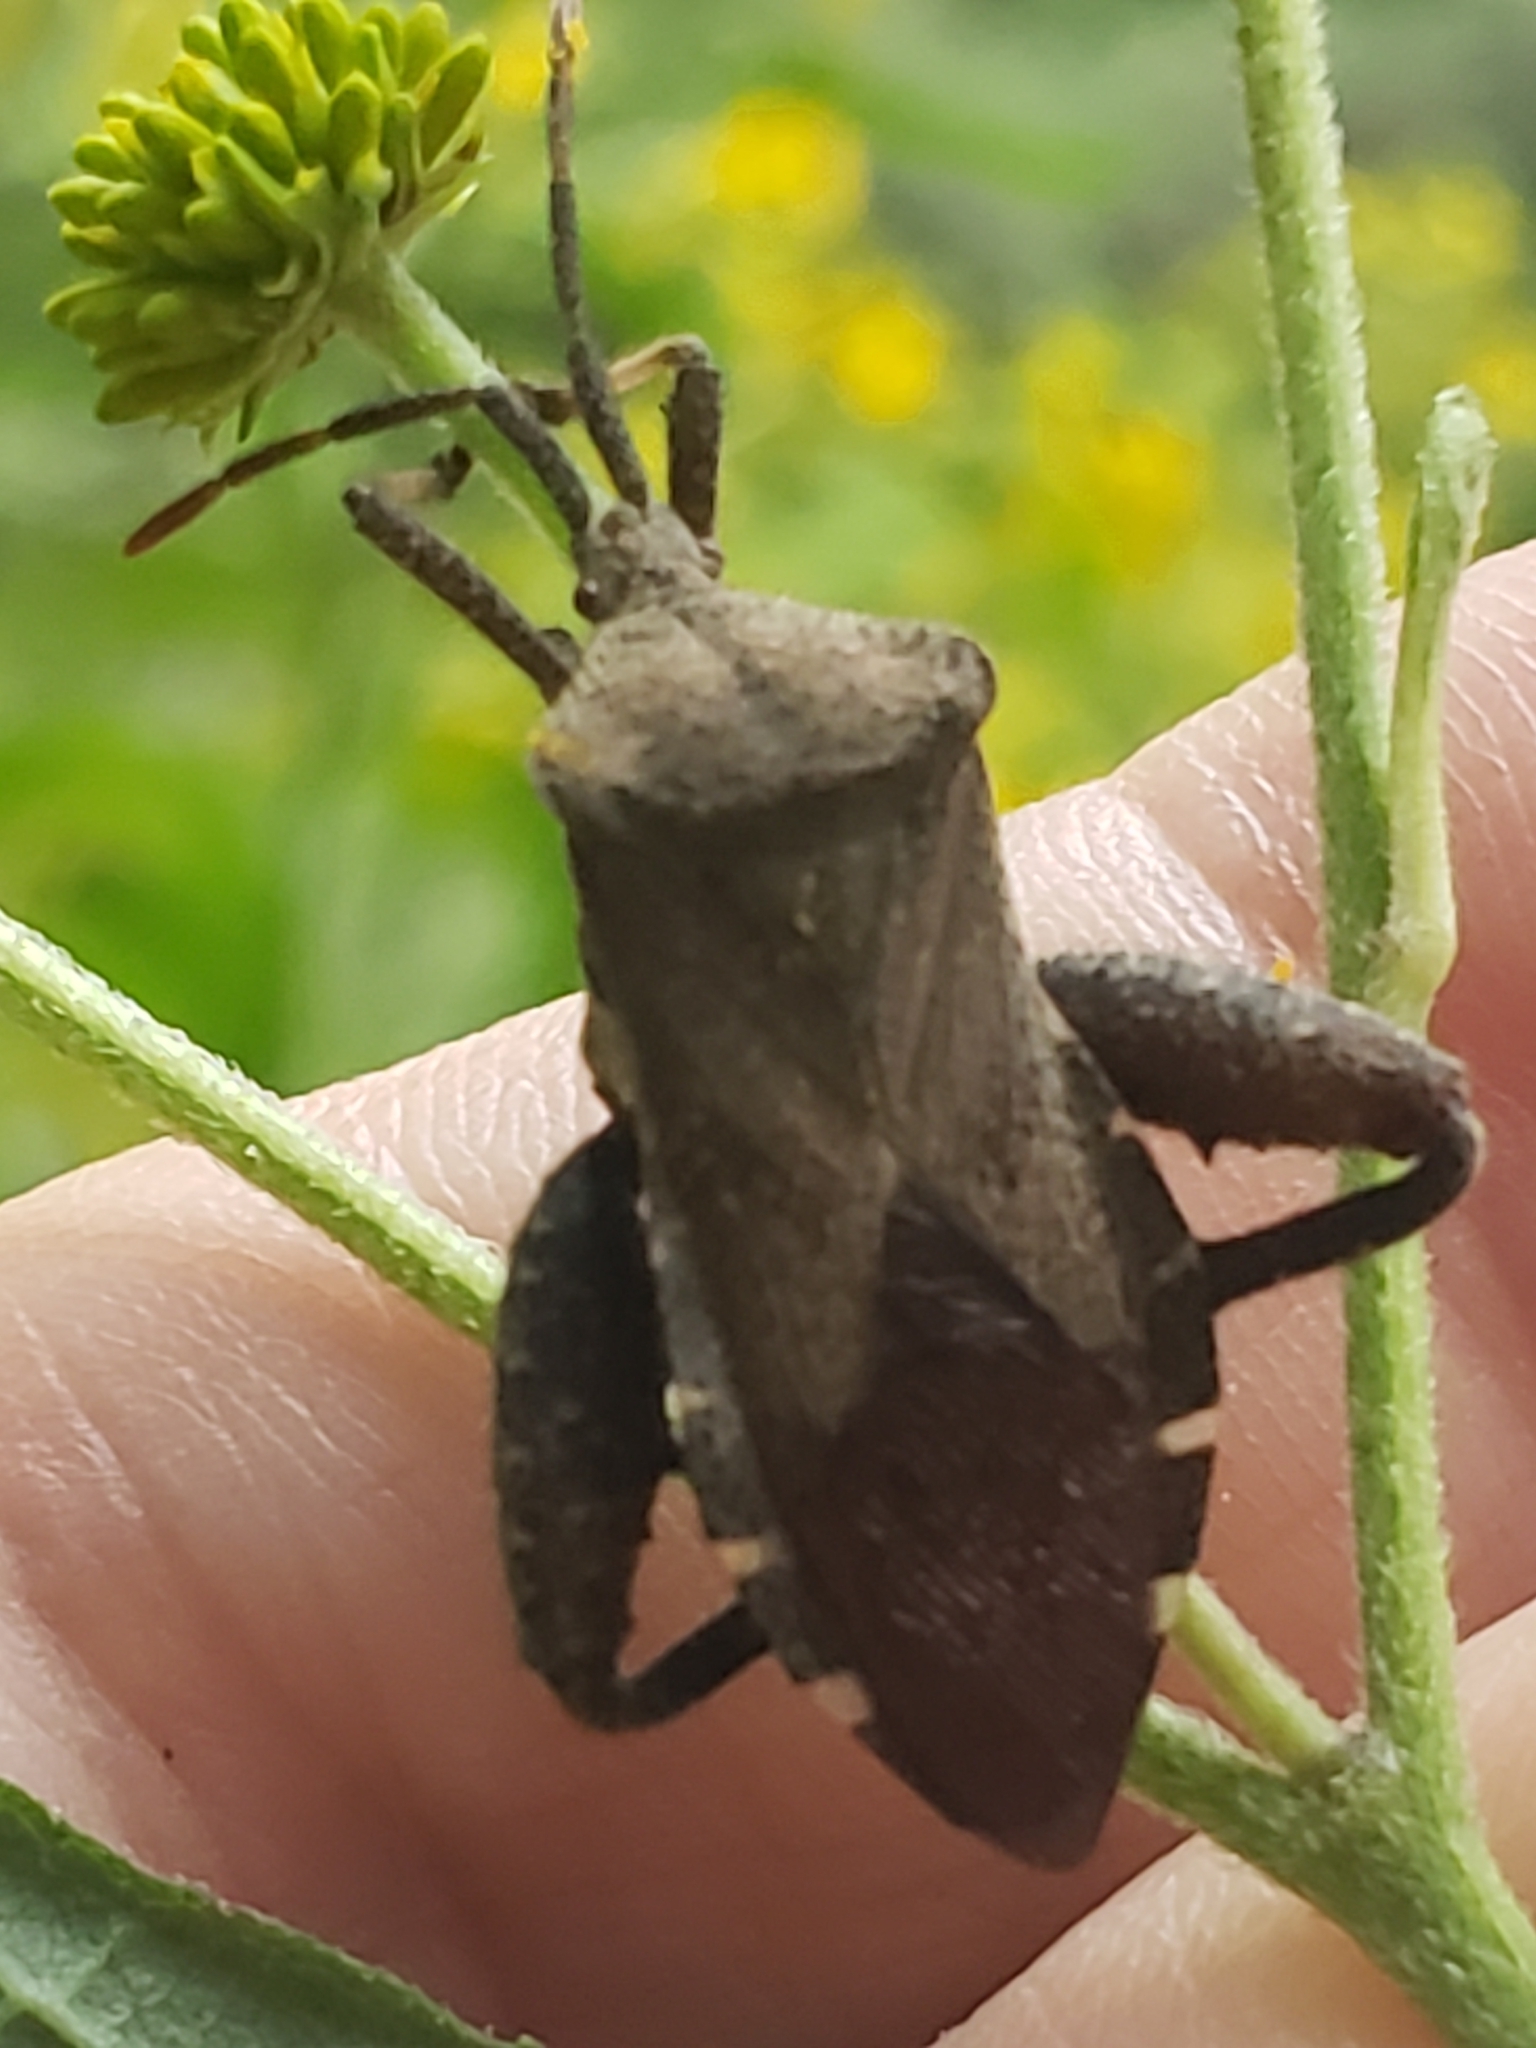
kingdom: Animalia
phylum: Arthropoda
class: Insecta
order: Hemiptera
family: Coreidae
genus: Piezogaster
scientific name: Piezogaster calcarator
